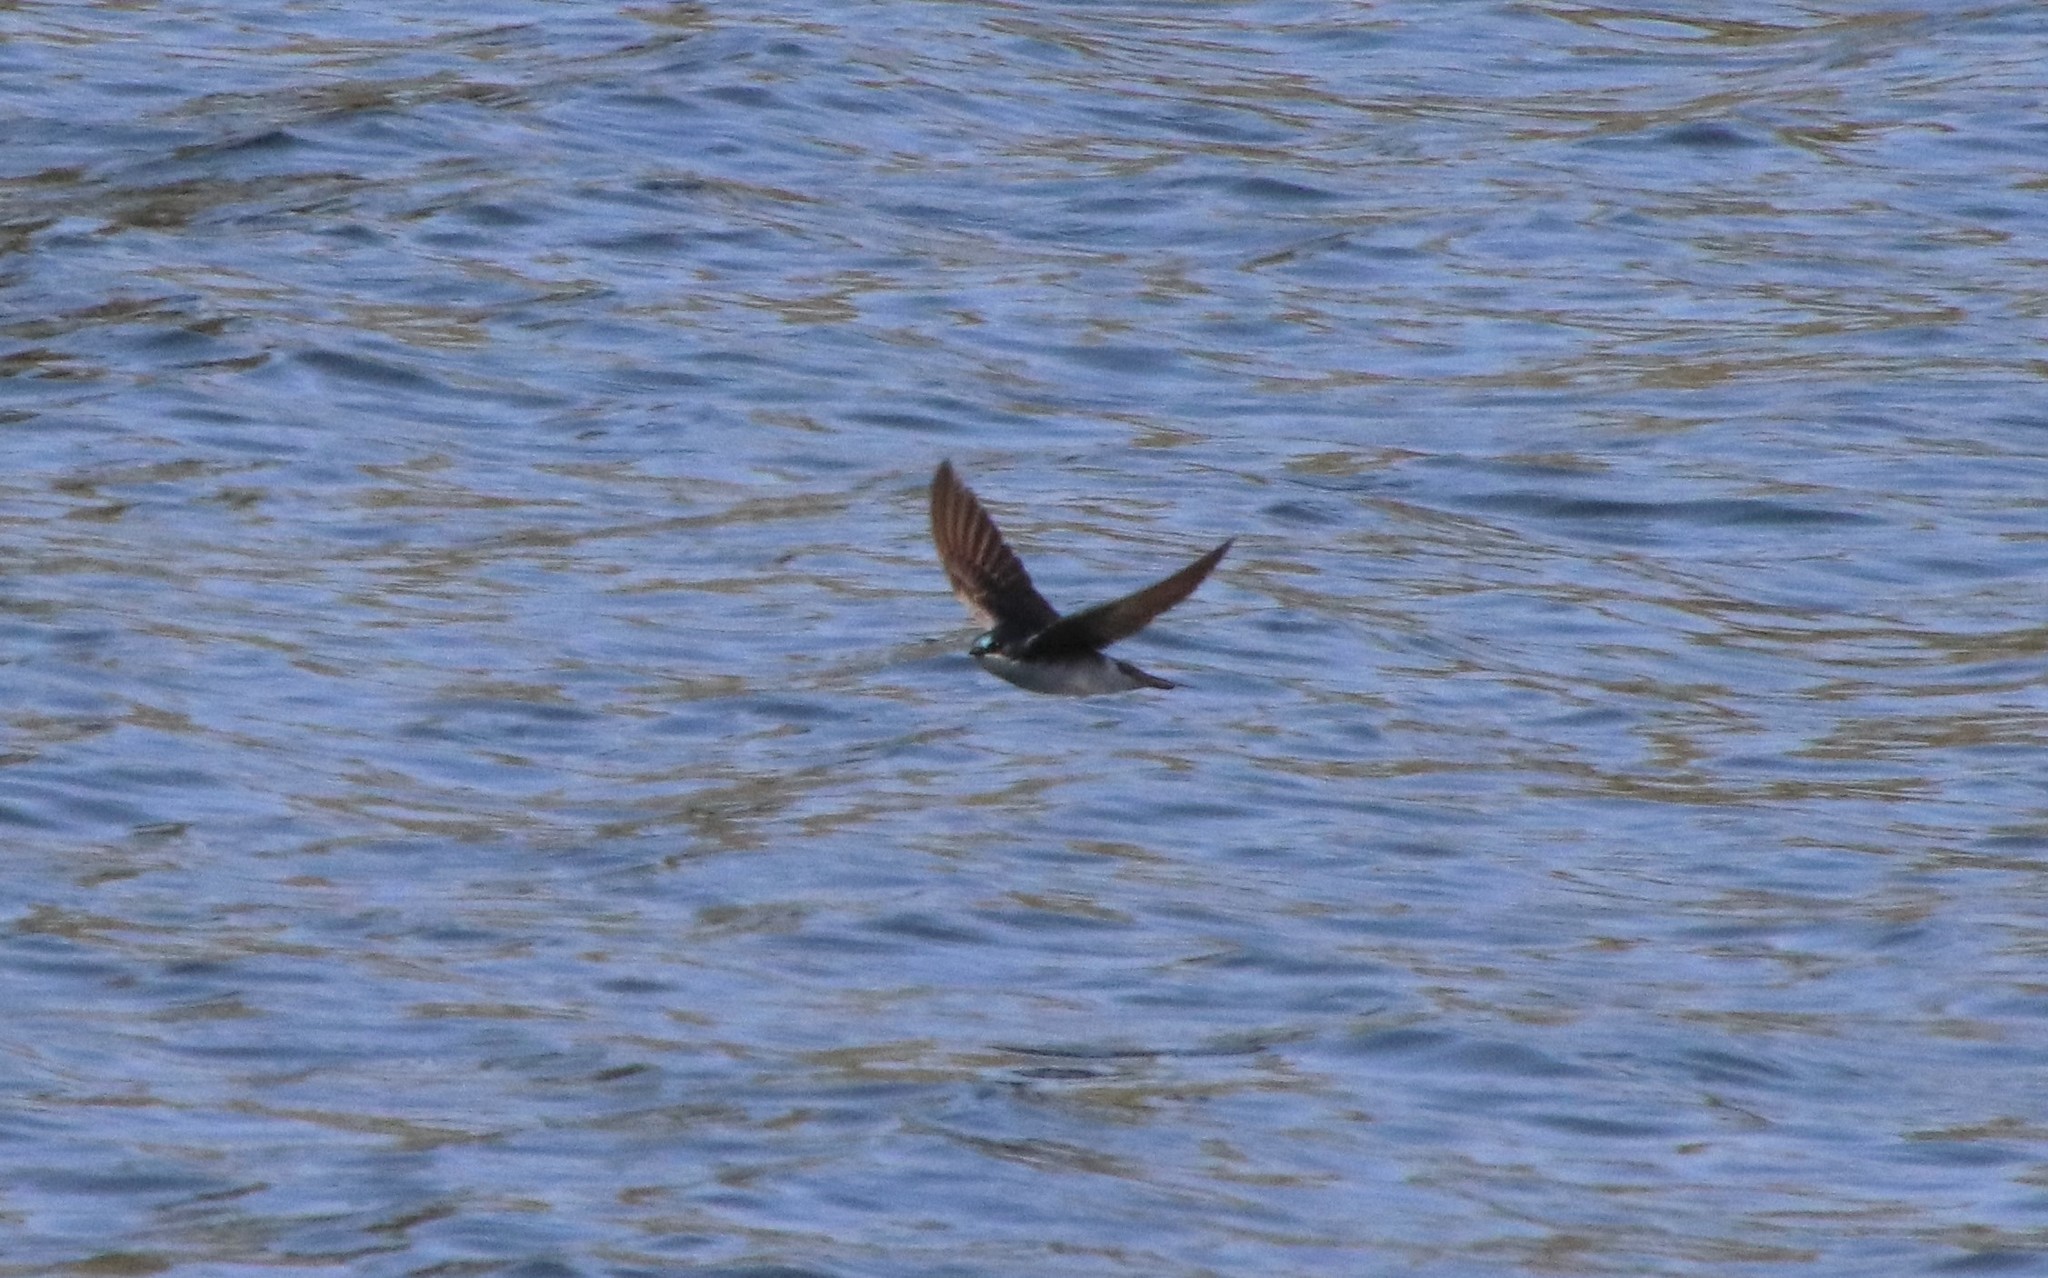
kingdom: Animalia
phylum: Chordata
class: Aves
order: Passeriformes
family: Hirundinidae
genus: Tachycineta
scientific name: Tachycineta bicolor
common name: Tree swallow
